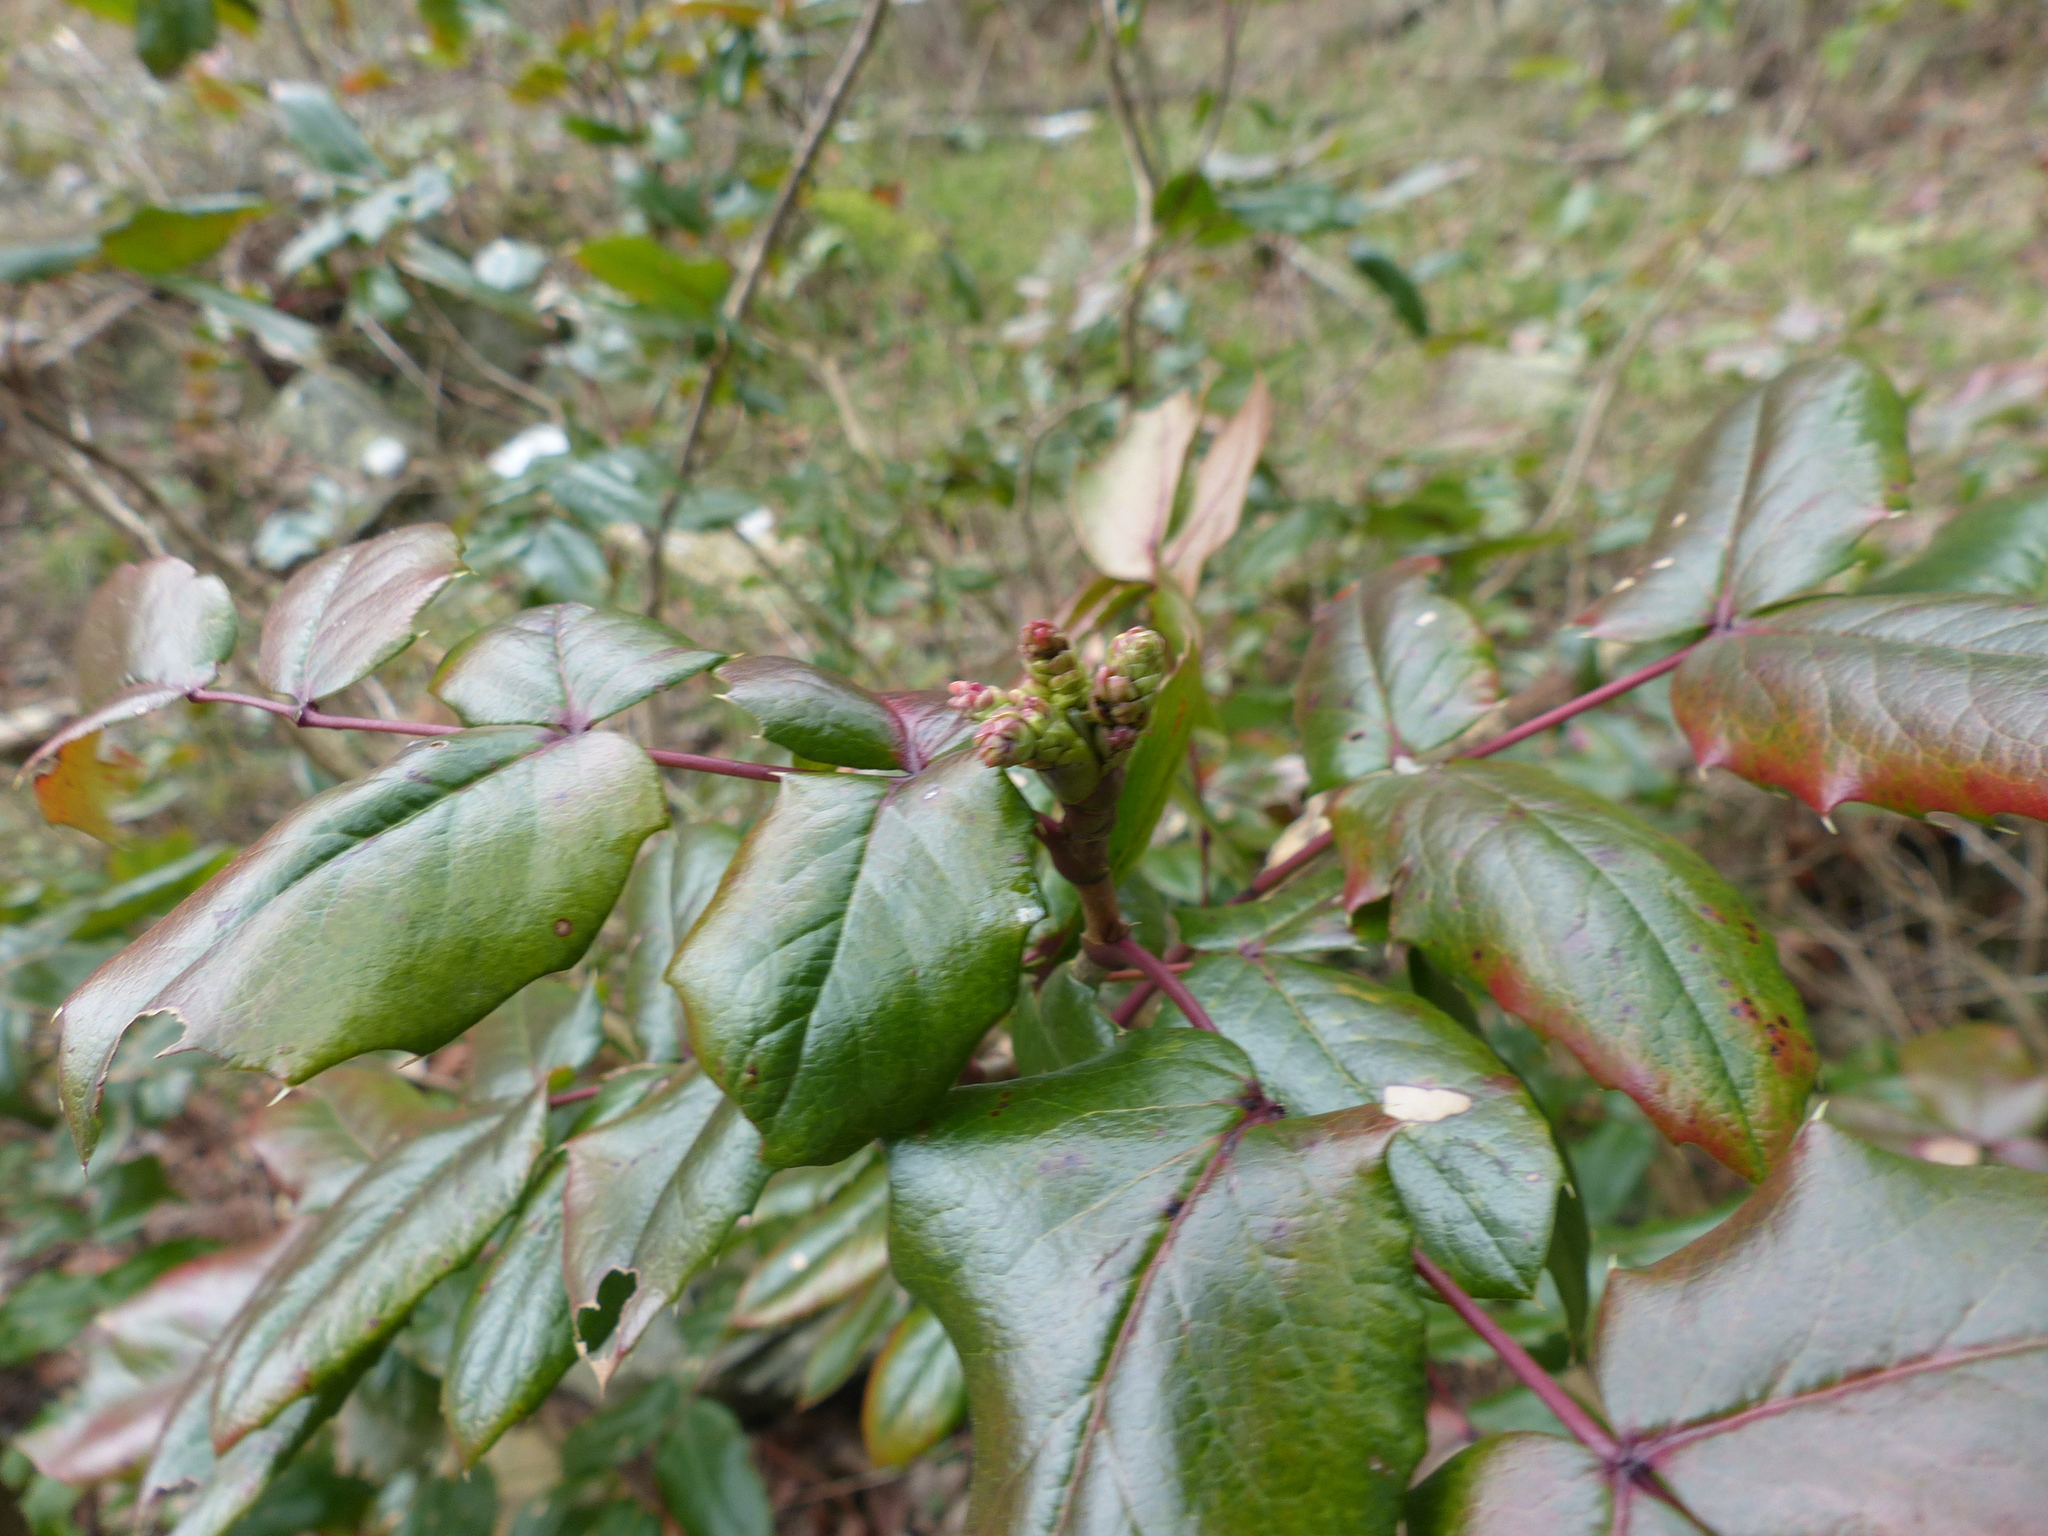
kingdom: Plantae
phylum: Tracheophyta
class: Magnoliopsida
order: Ranunculales
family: Berberidaceae
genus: Mahonia
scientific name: Mahonia aquifolium
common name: Oregon-grape
